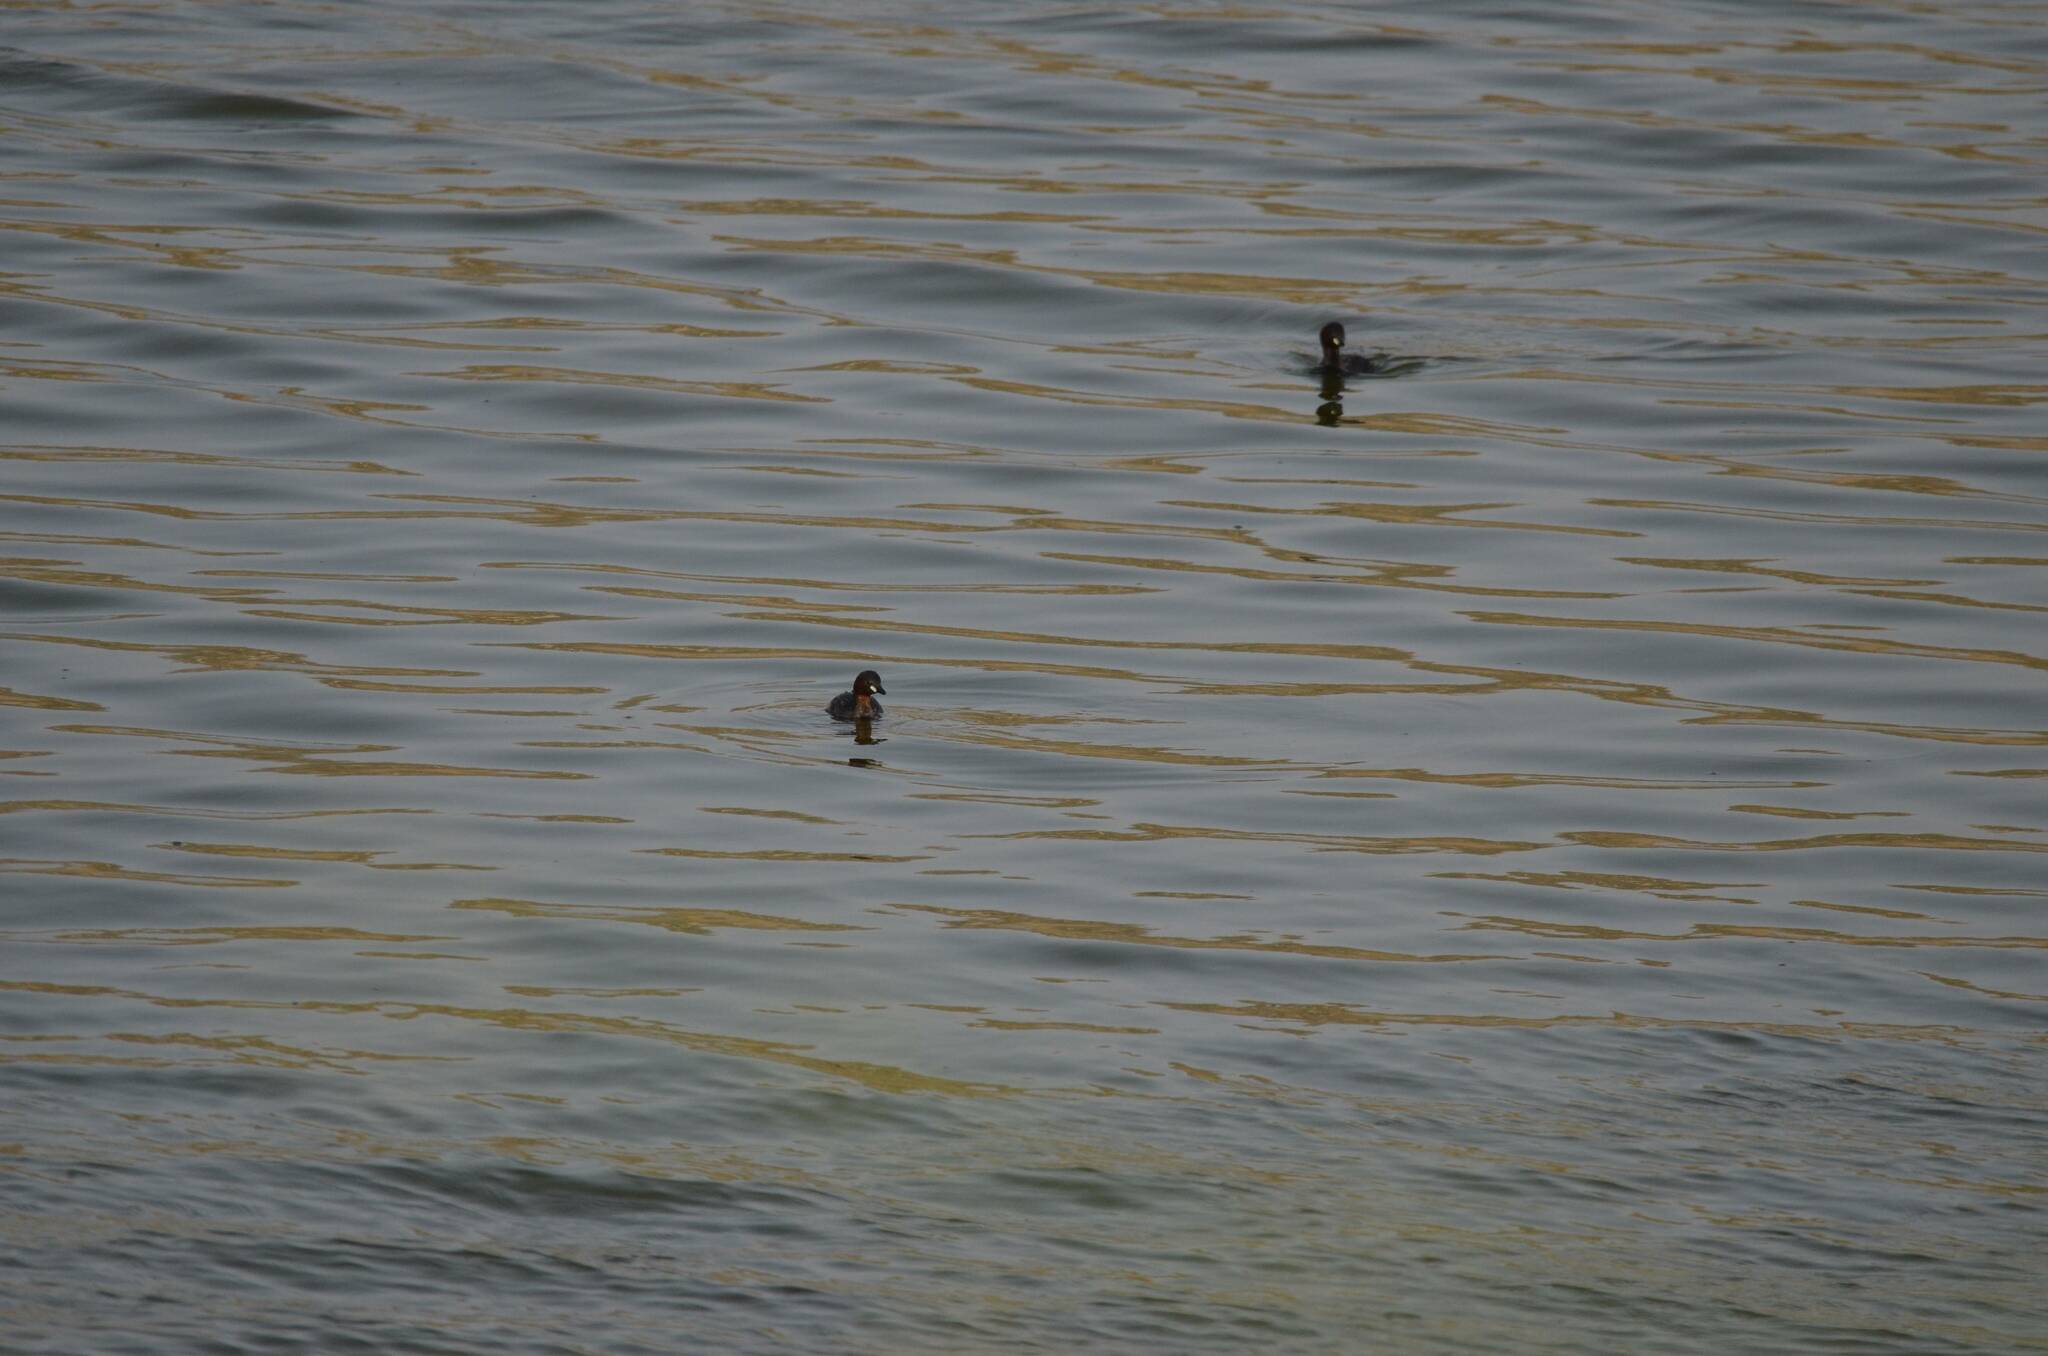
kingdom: Animalia
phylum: Chordata
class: Aves
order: Podicipediformes
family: Podicipedidae
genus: Tachybaptus
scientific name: Tachybaptus ruficollis
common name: Little grebe
